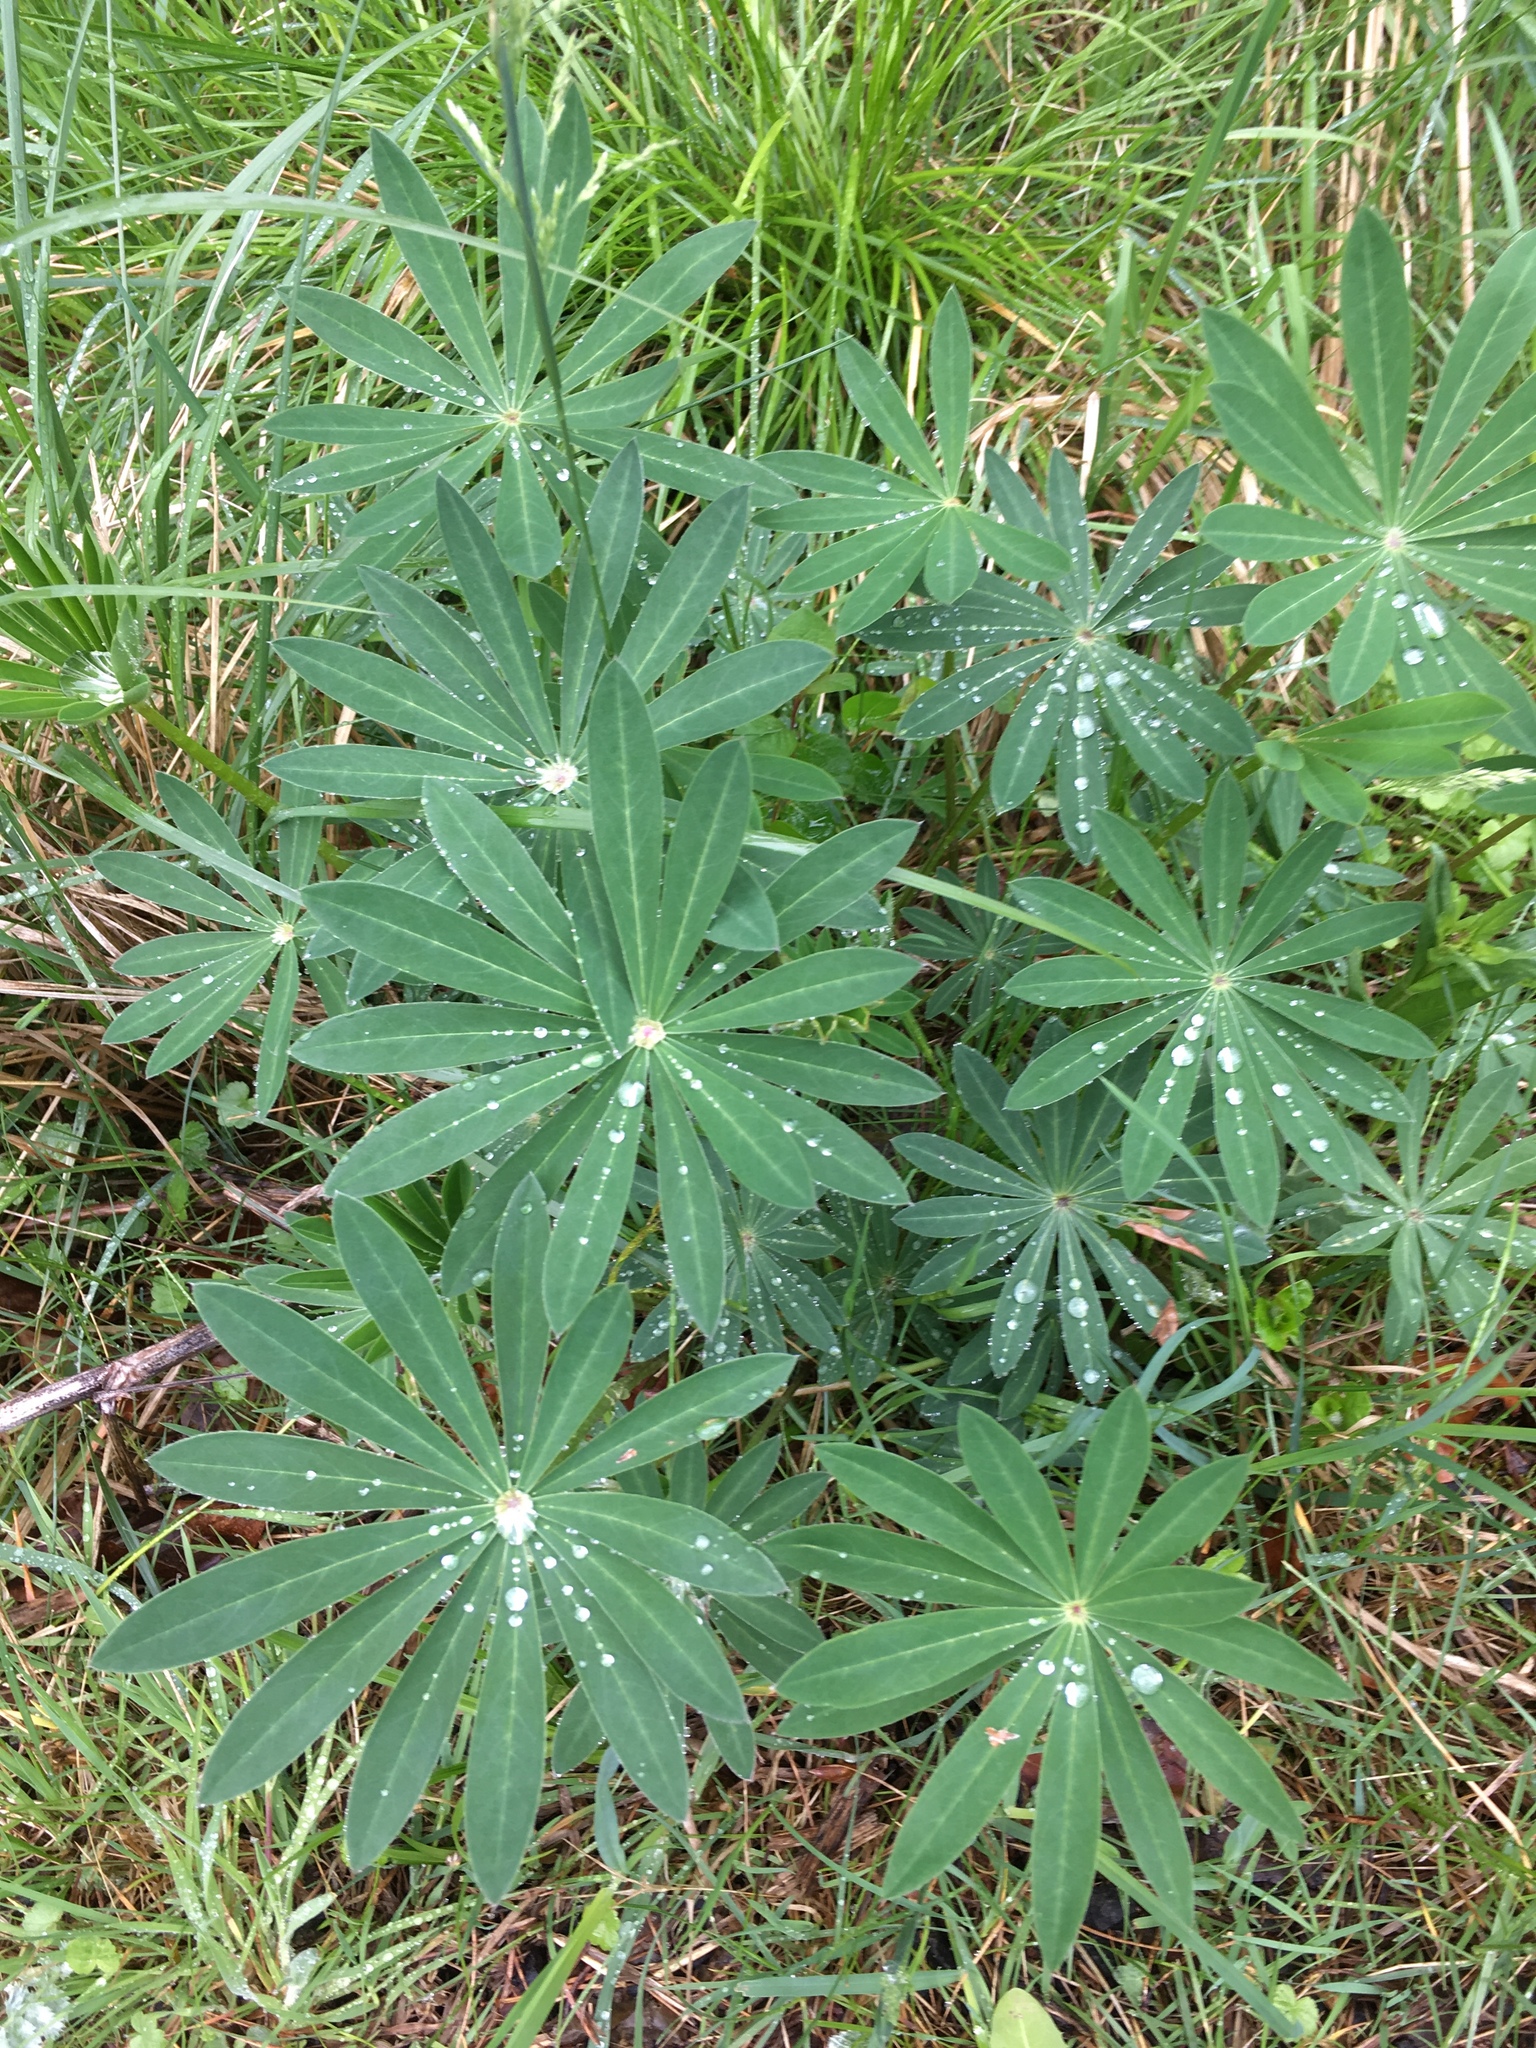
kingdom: Plantae
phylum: Tracheophyta
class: Magnoliopsida
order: Fabales
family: Fabaceae
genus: Lupinus
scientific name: Lupinus polyphyllus
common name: Garden lupin
